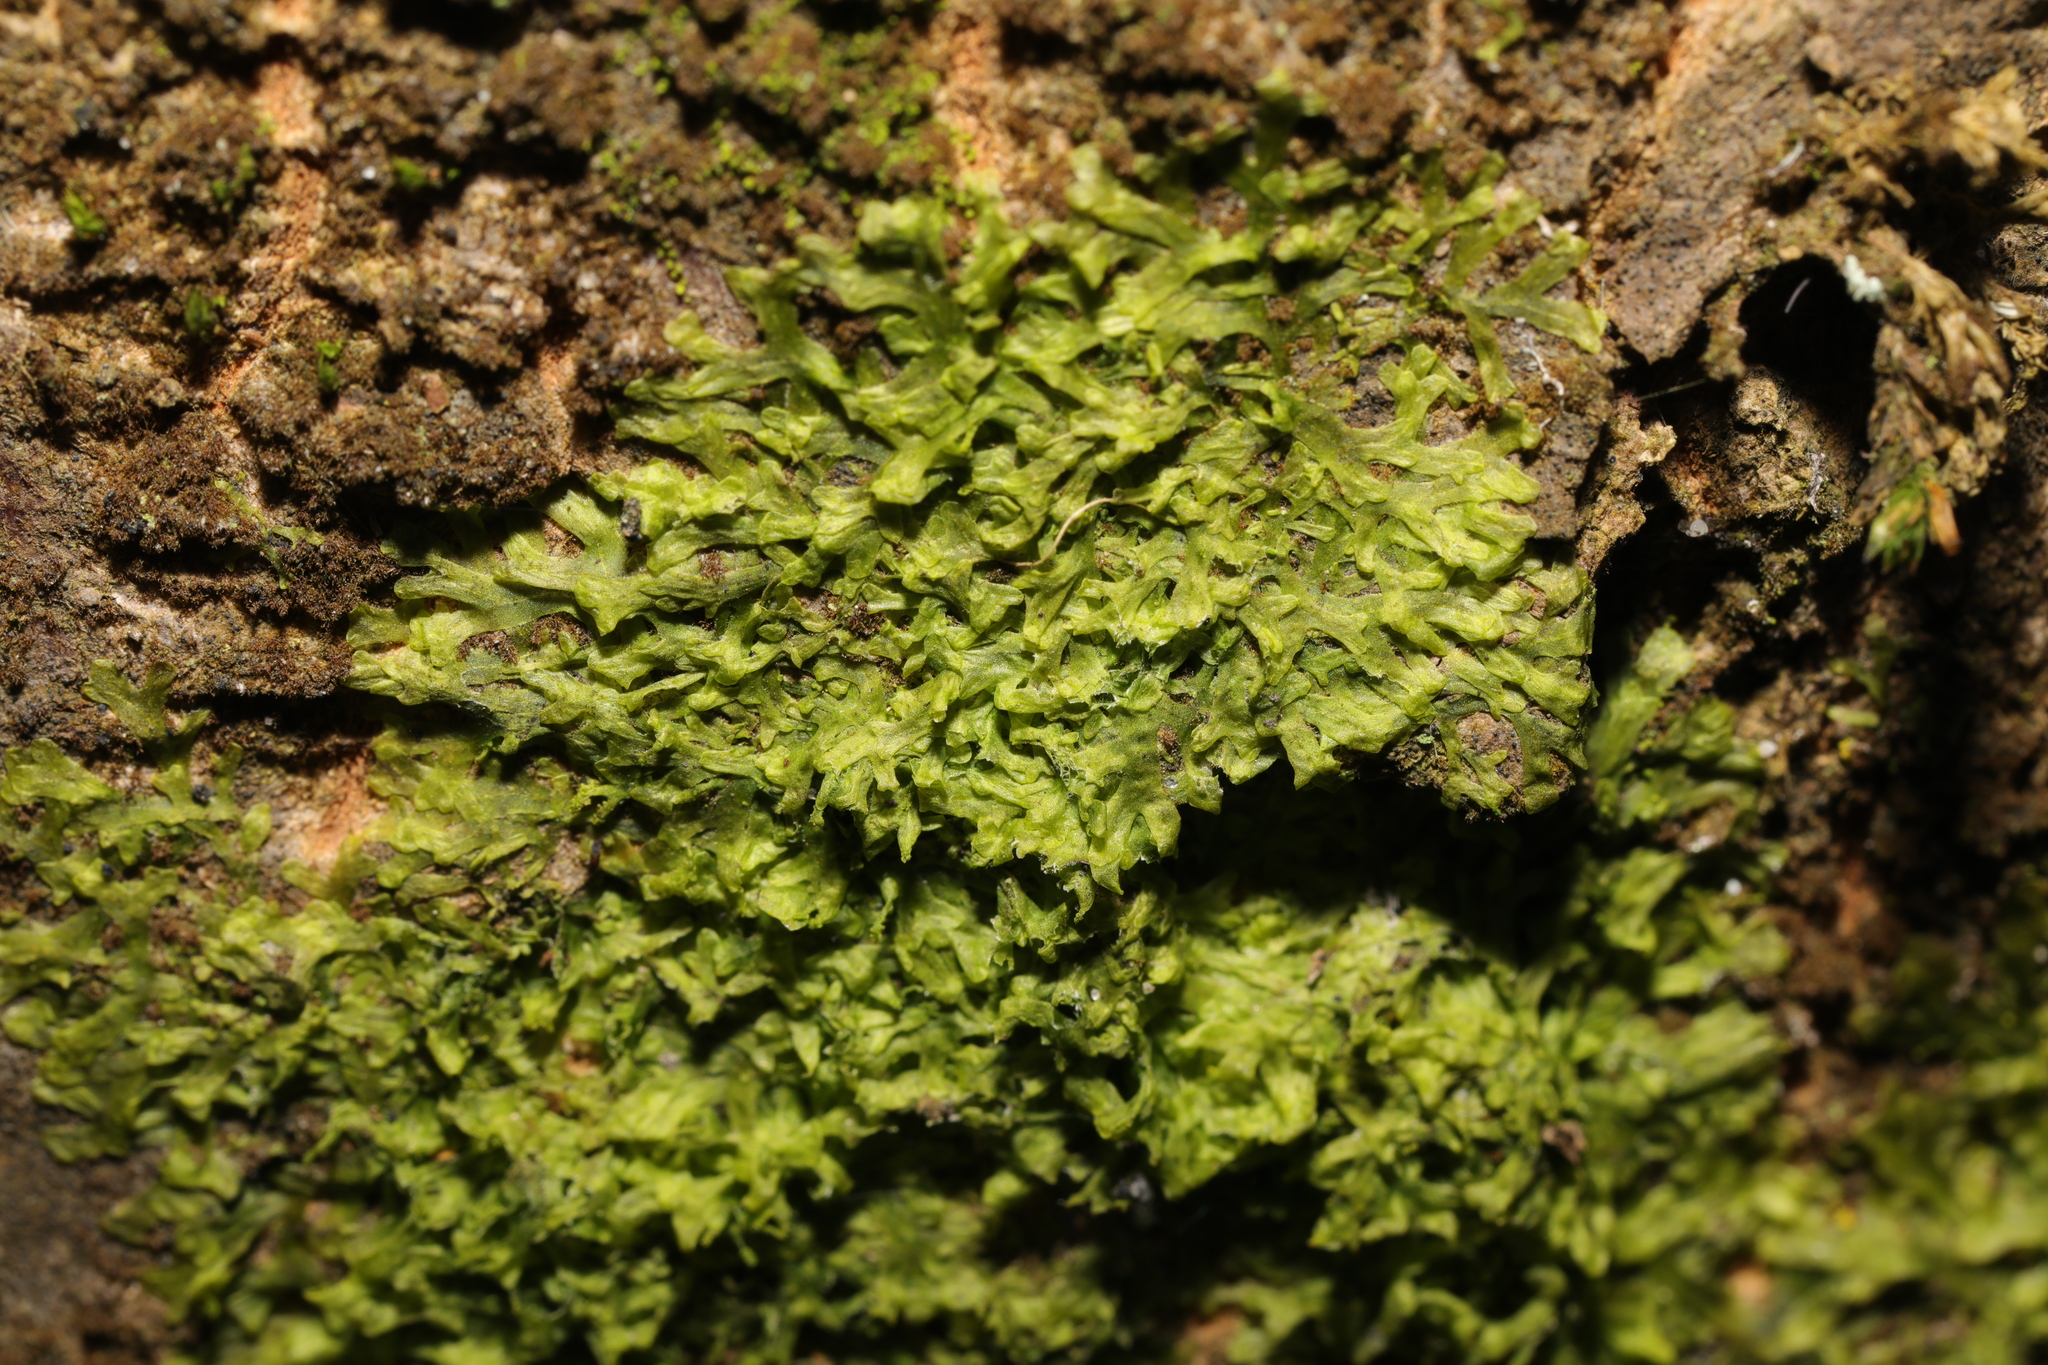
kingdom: Plantae
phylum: Marchantiophyta
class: Jungermanniopsida
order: Metzgeriales
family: Metzgeriaceae
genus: Metzgeria
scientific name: Metzgeria furcata
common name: Forked veilwort
